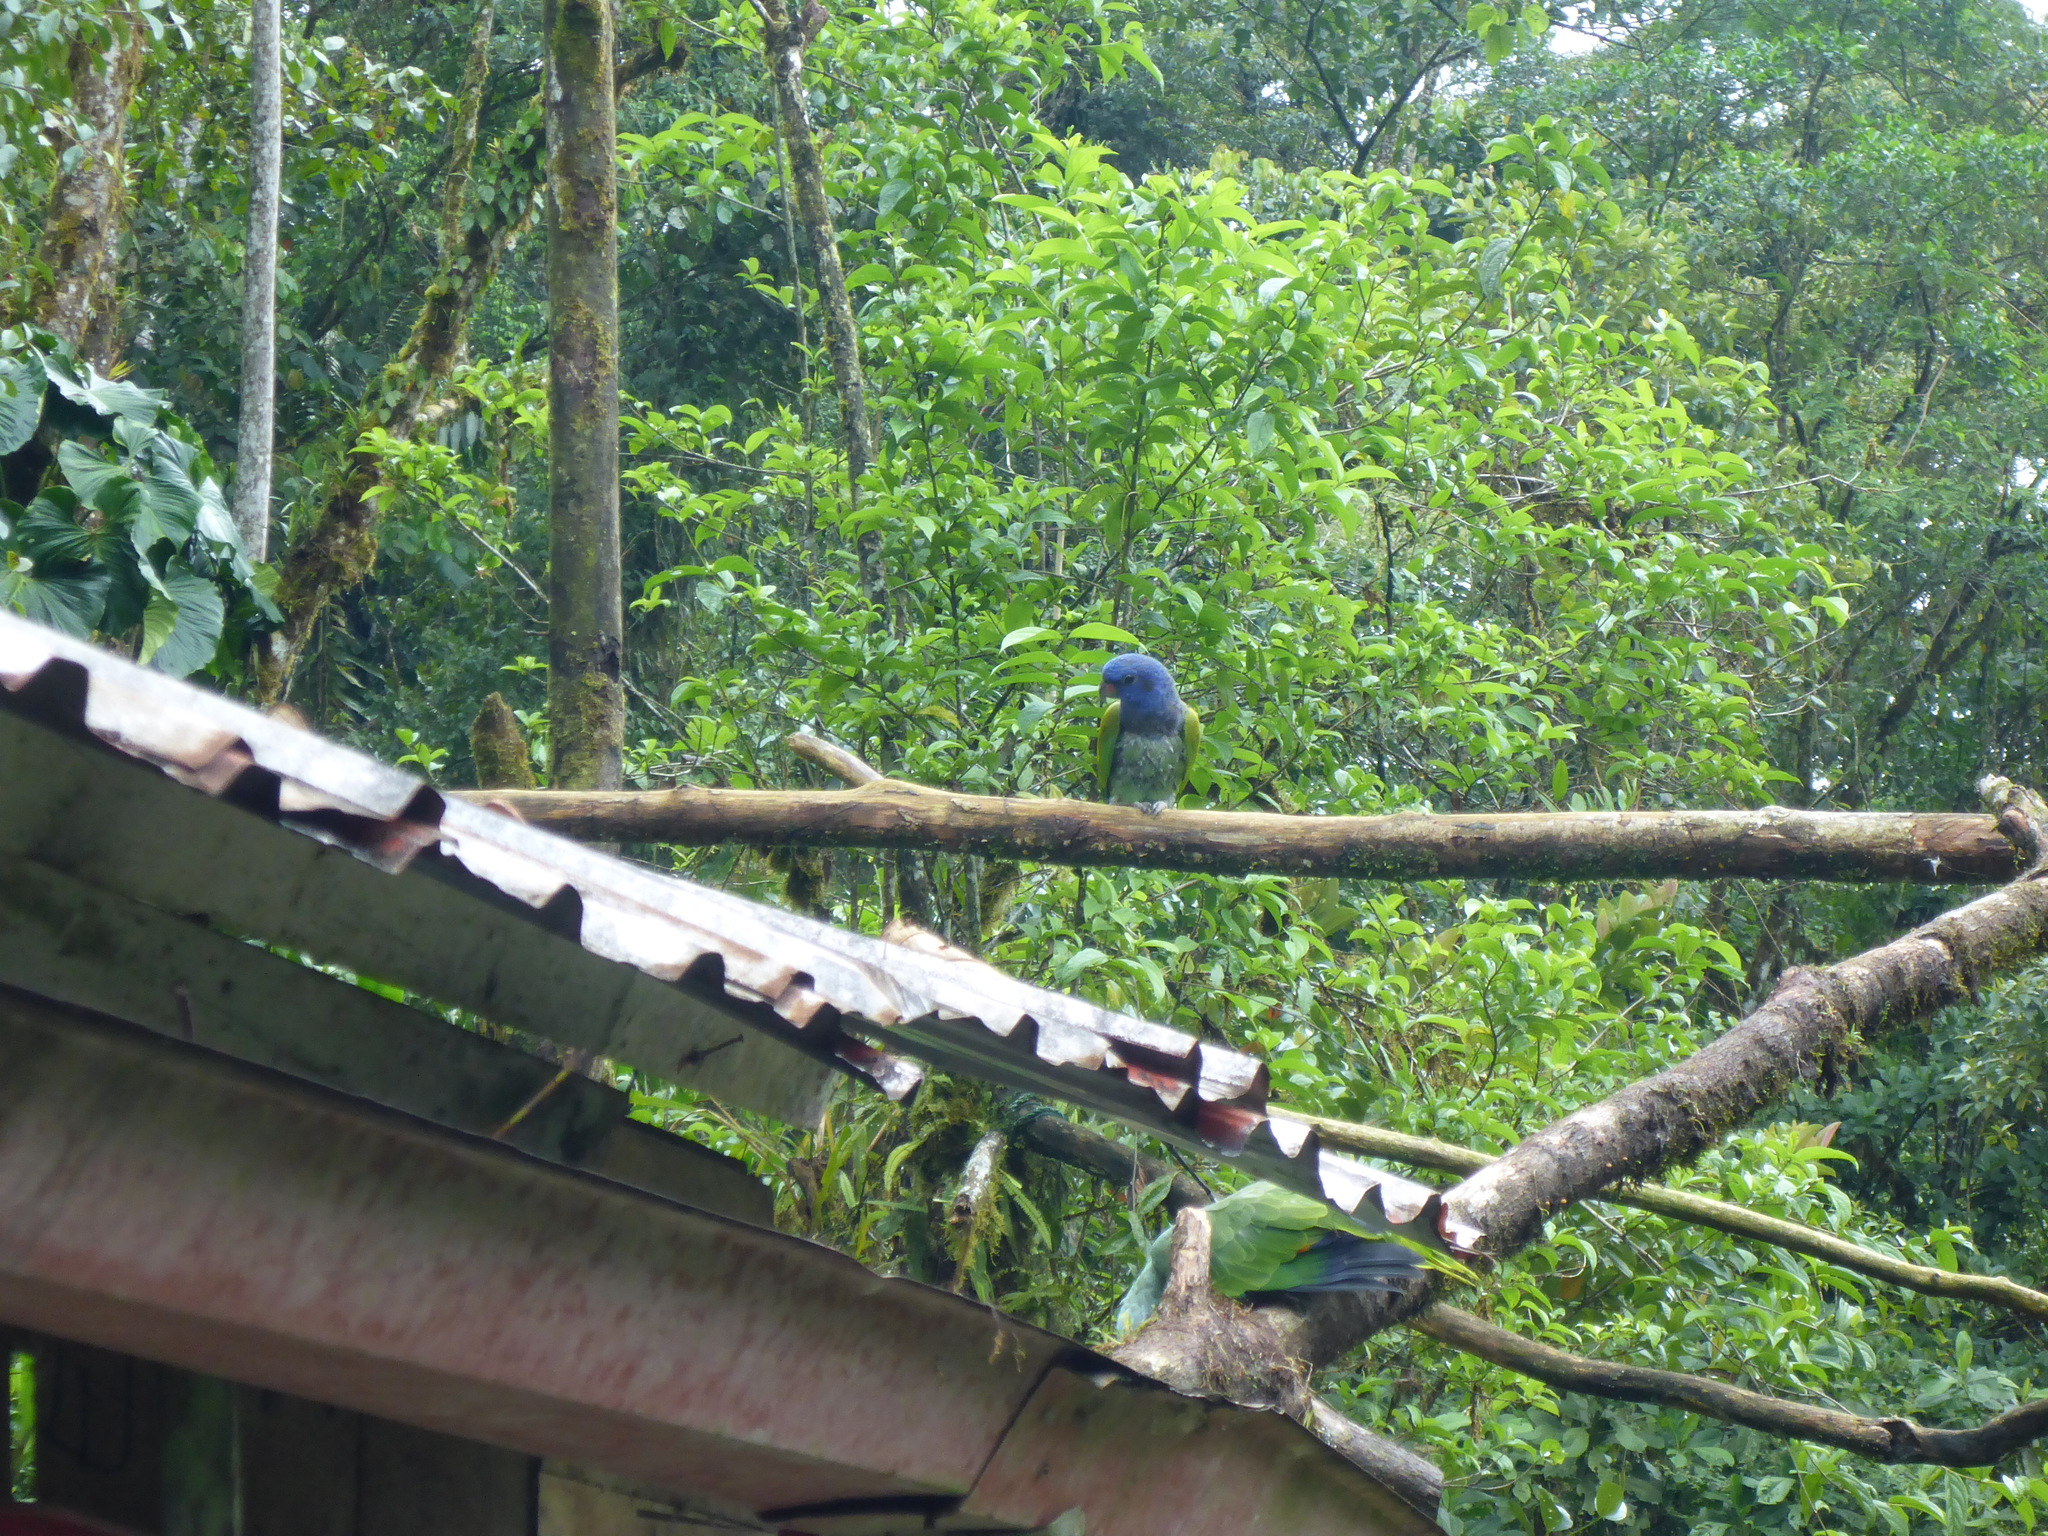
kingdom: Animalia
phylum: Chordata
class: Aves
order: Psittaciformes
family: Psittacidae
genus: Pionus
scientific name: Pionus menstruus
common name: Blue-headed parrot
